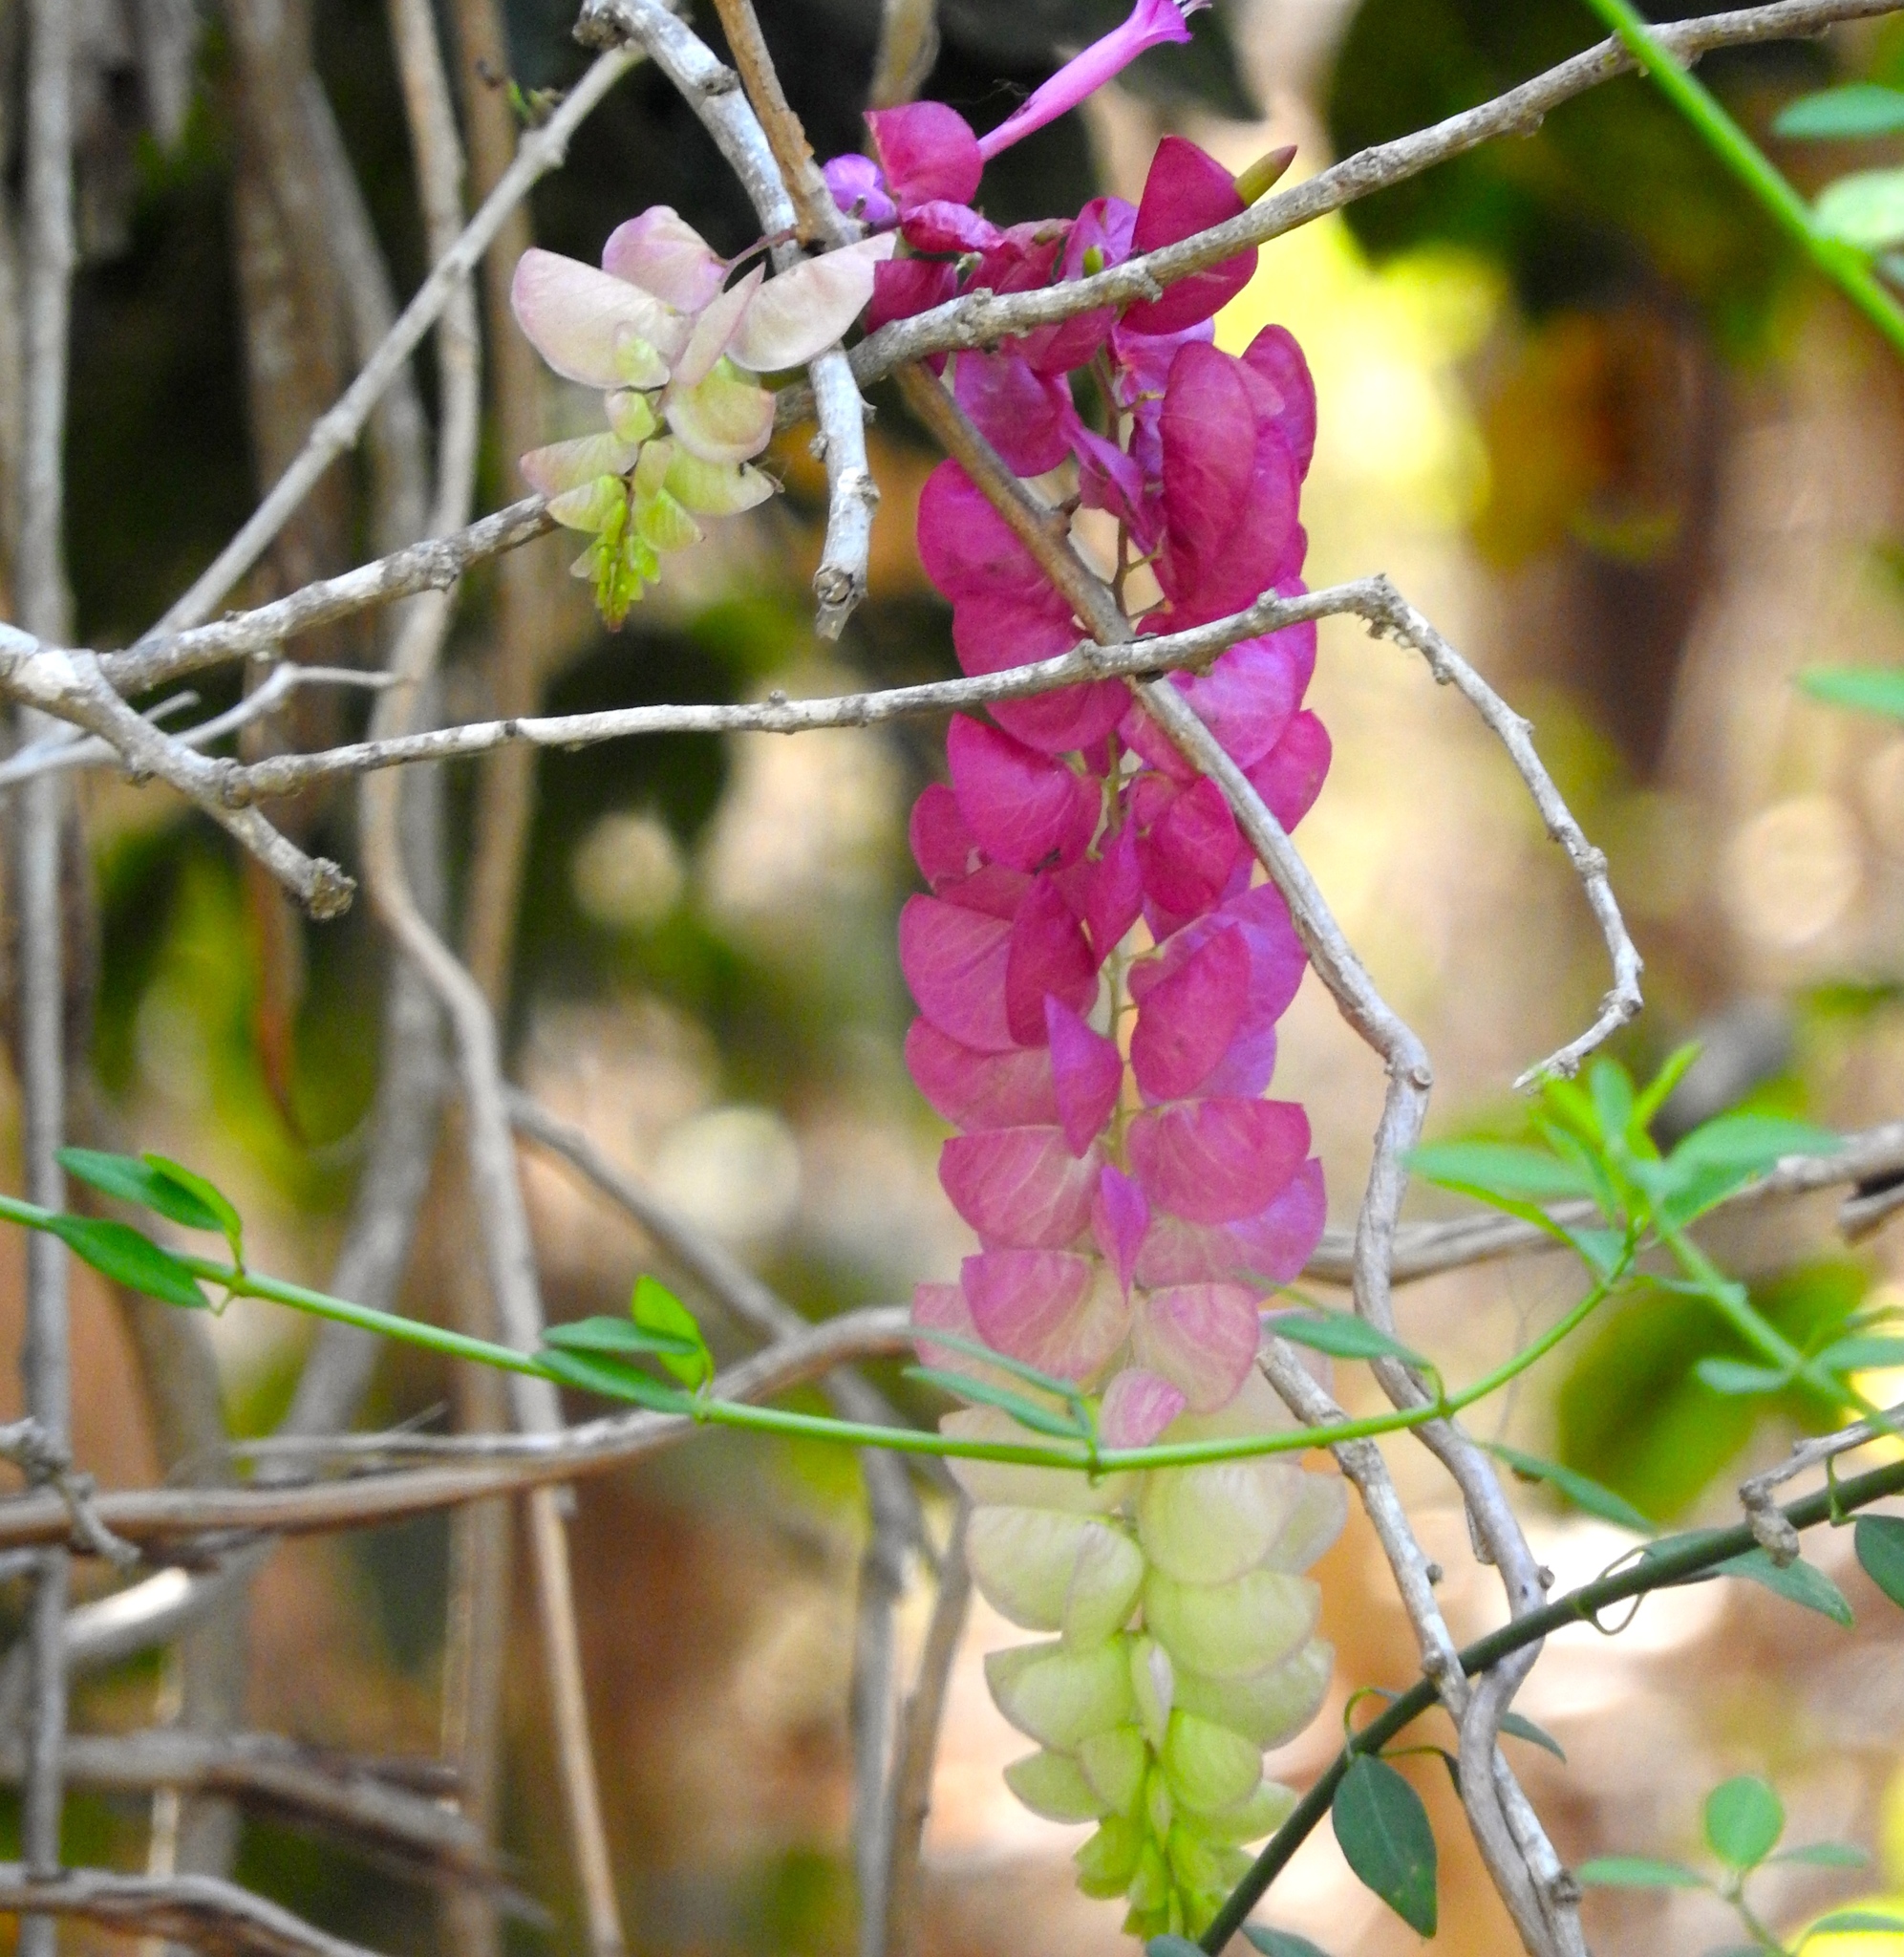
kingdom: Plantae
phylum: Tracheophyta
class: Magnoliopsida
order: Solanales
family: Convolvulaceae
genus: Ipomoea
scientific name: Ipomoea bracteata
